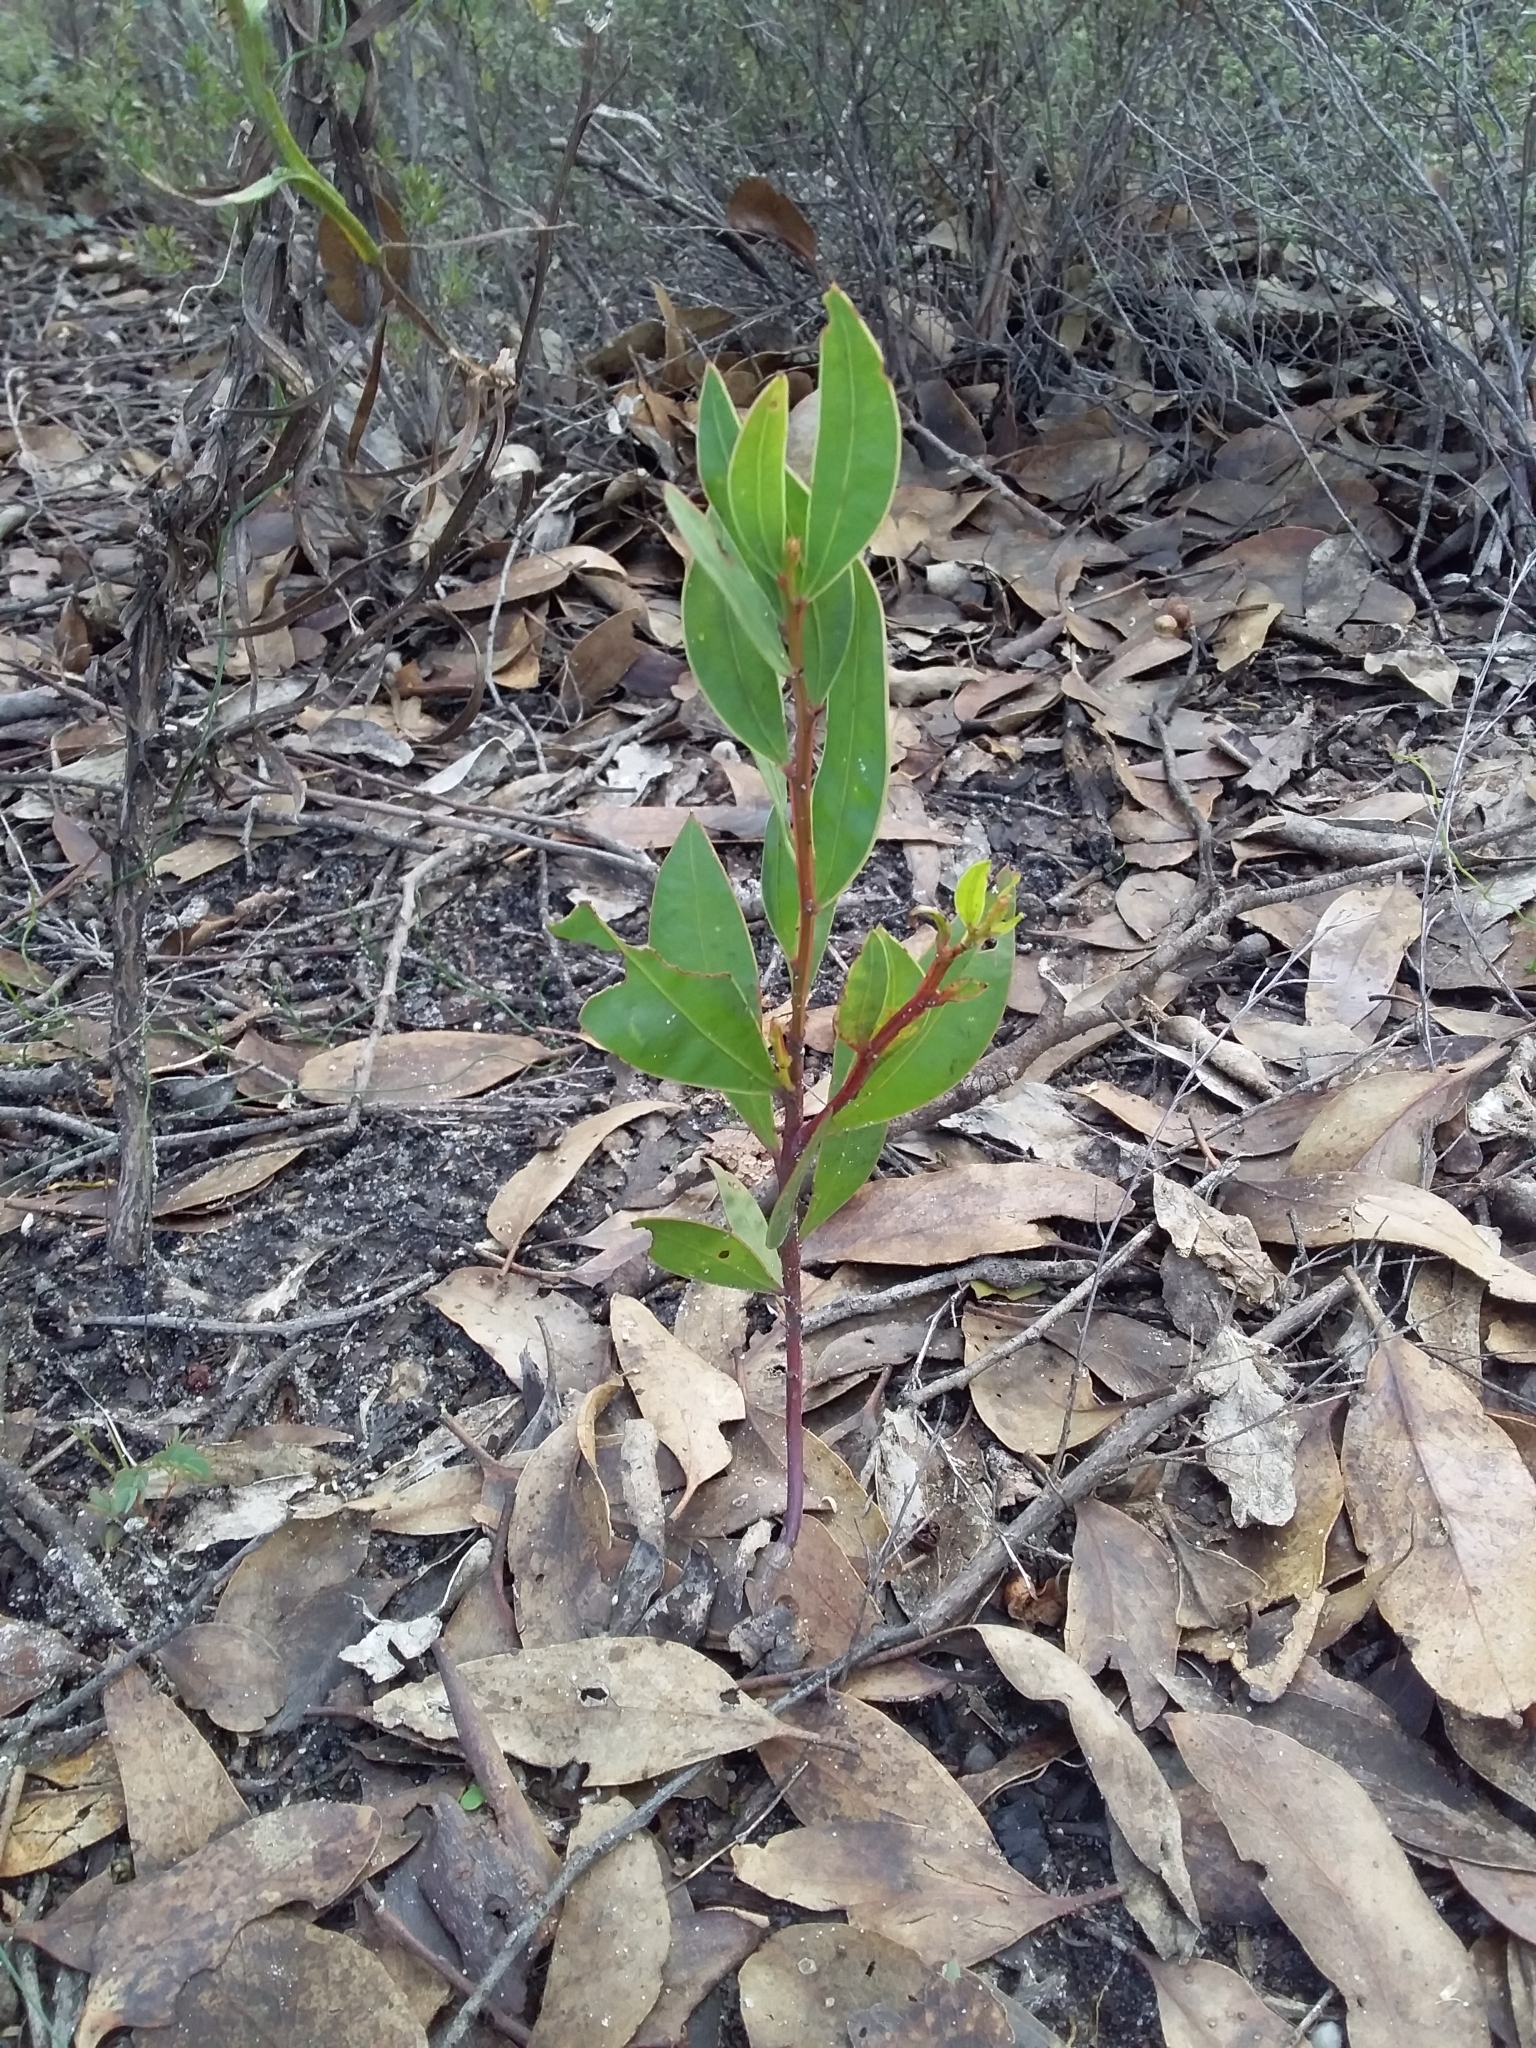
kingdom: Plantae
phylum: Tracheophyta
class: Magnoliopsida
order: Fabales
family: Fabaceae
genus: Acacia
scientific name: Acacia myrtifolia
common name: Myrtle wattle
